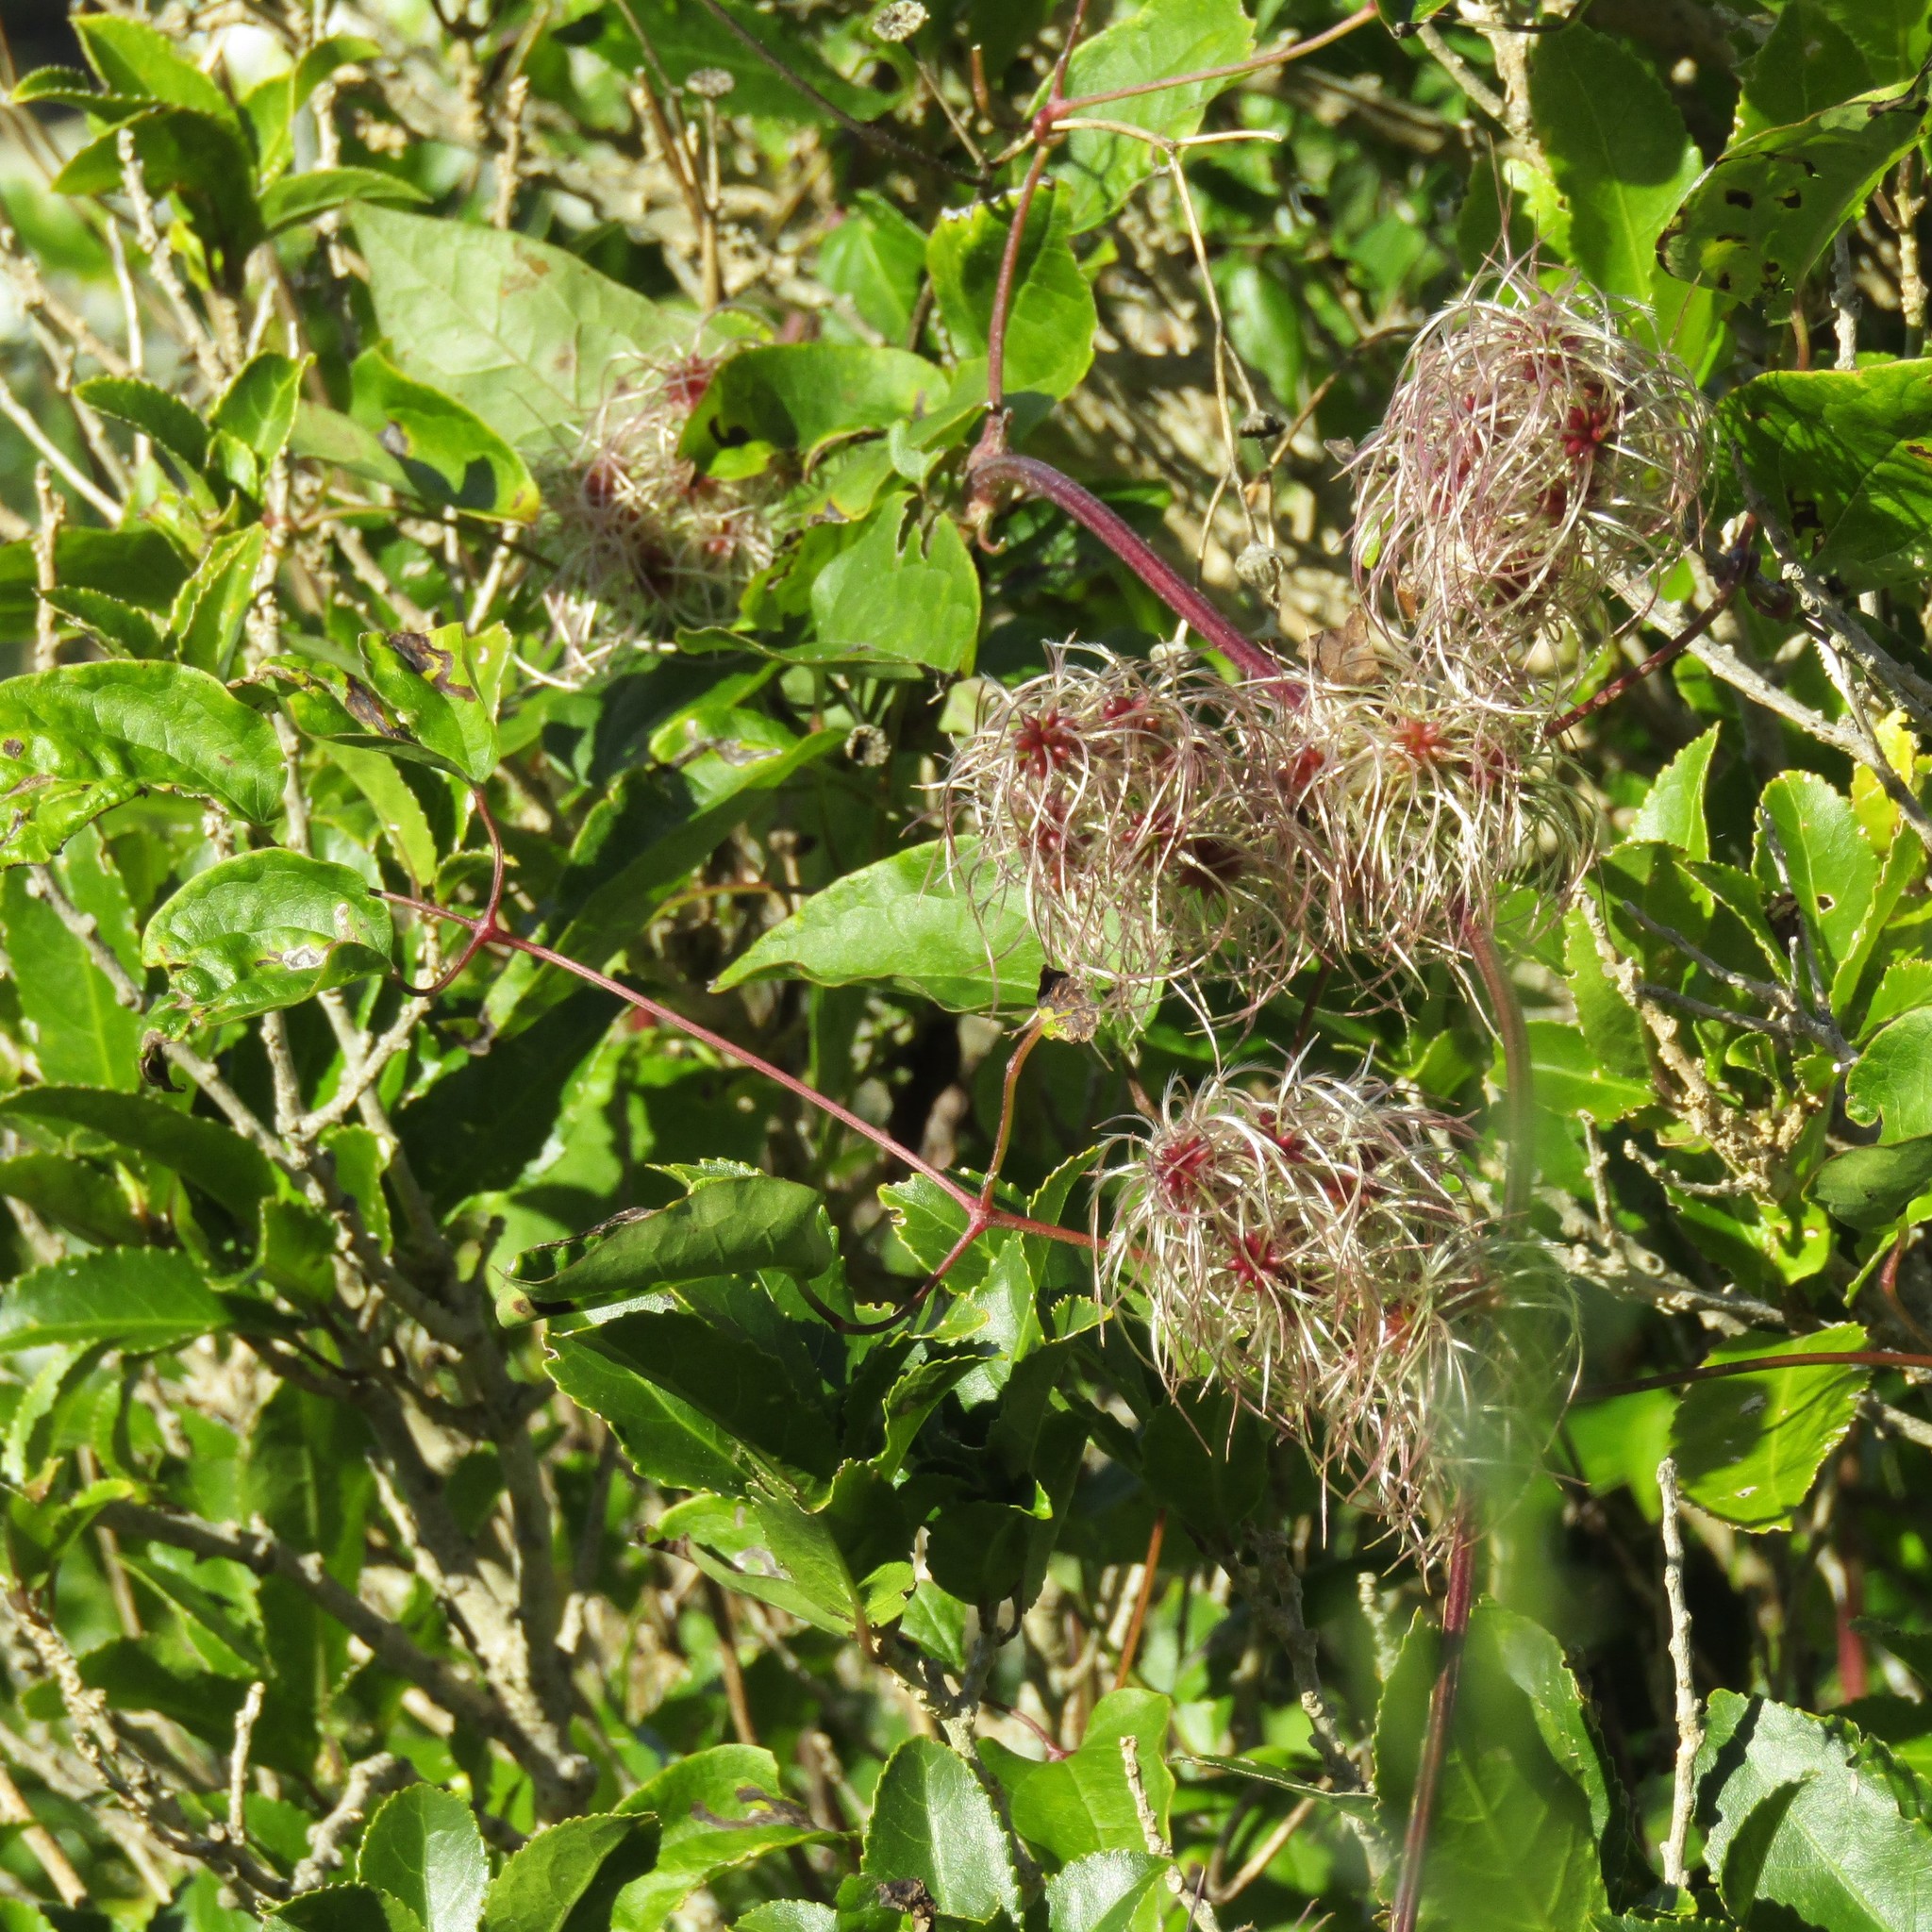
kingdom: Plantae
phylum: Tracheophyta
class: Magnoliopsida
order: Ranunculales
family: Ranunculaceae
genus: Clematis
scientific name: Clematis vitalba
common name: Evergreen clematis
